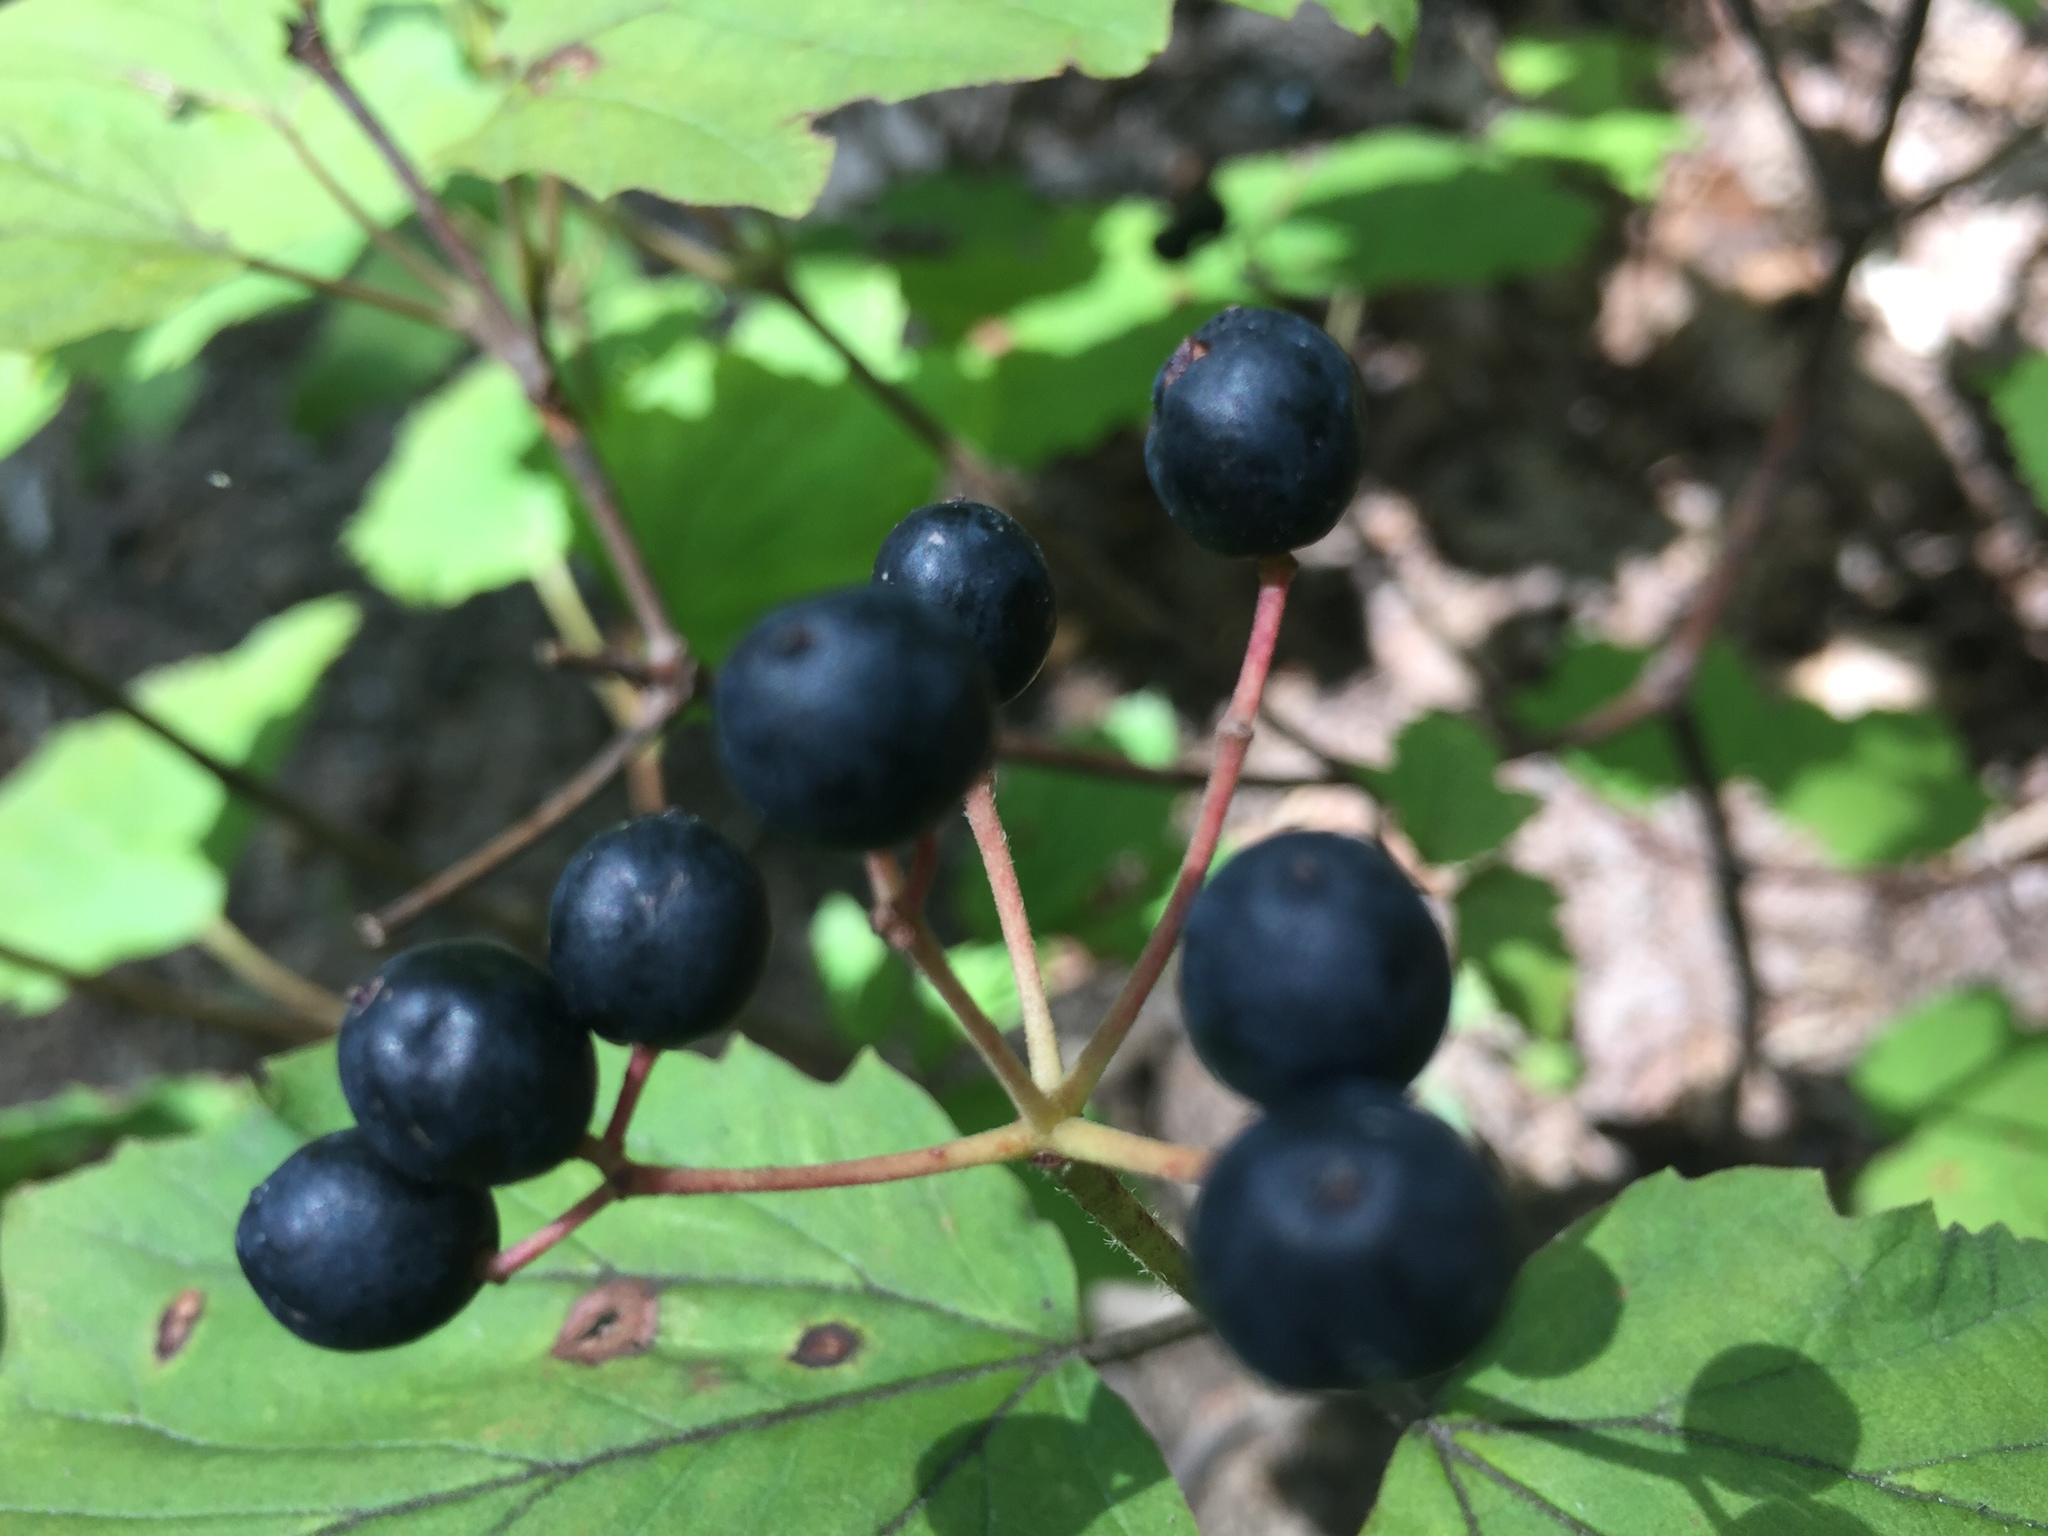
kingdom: Plantae
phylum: Tracheophyta
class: Magnoliopsida
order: Dipsacales
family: Viburnaceae
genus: Viburnum
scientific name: Viburnum acerifolium
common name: Dockmackie
